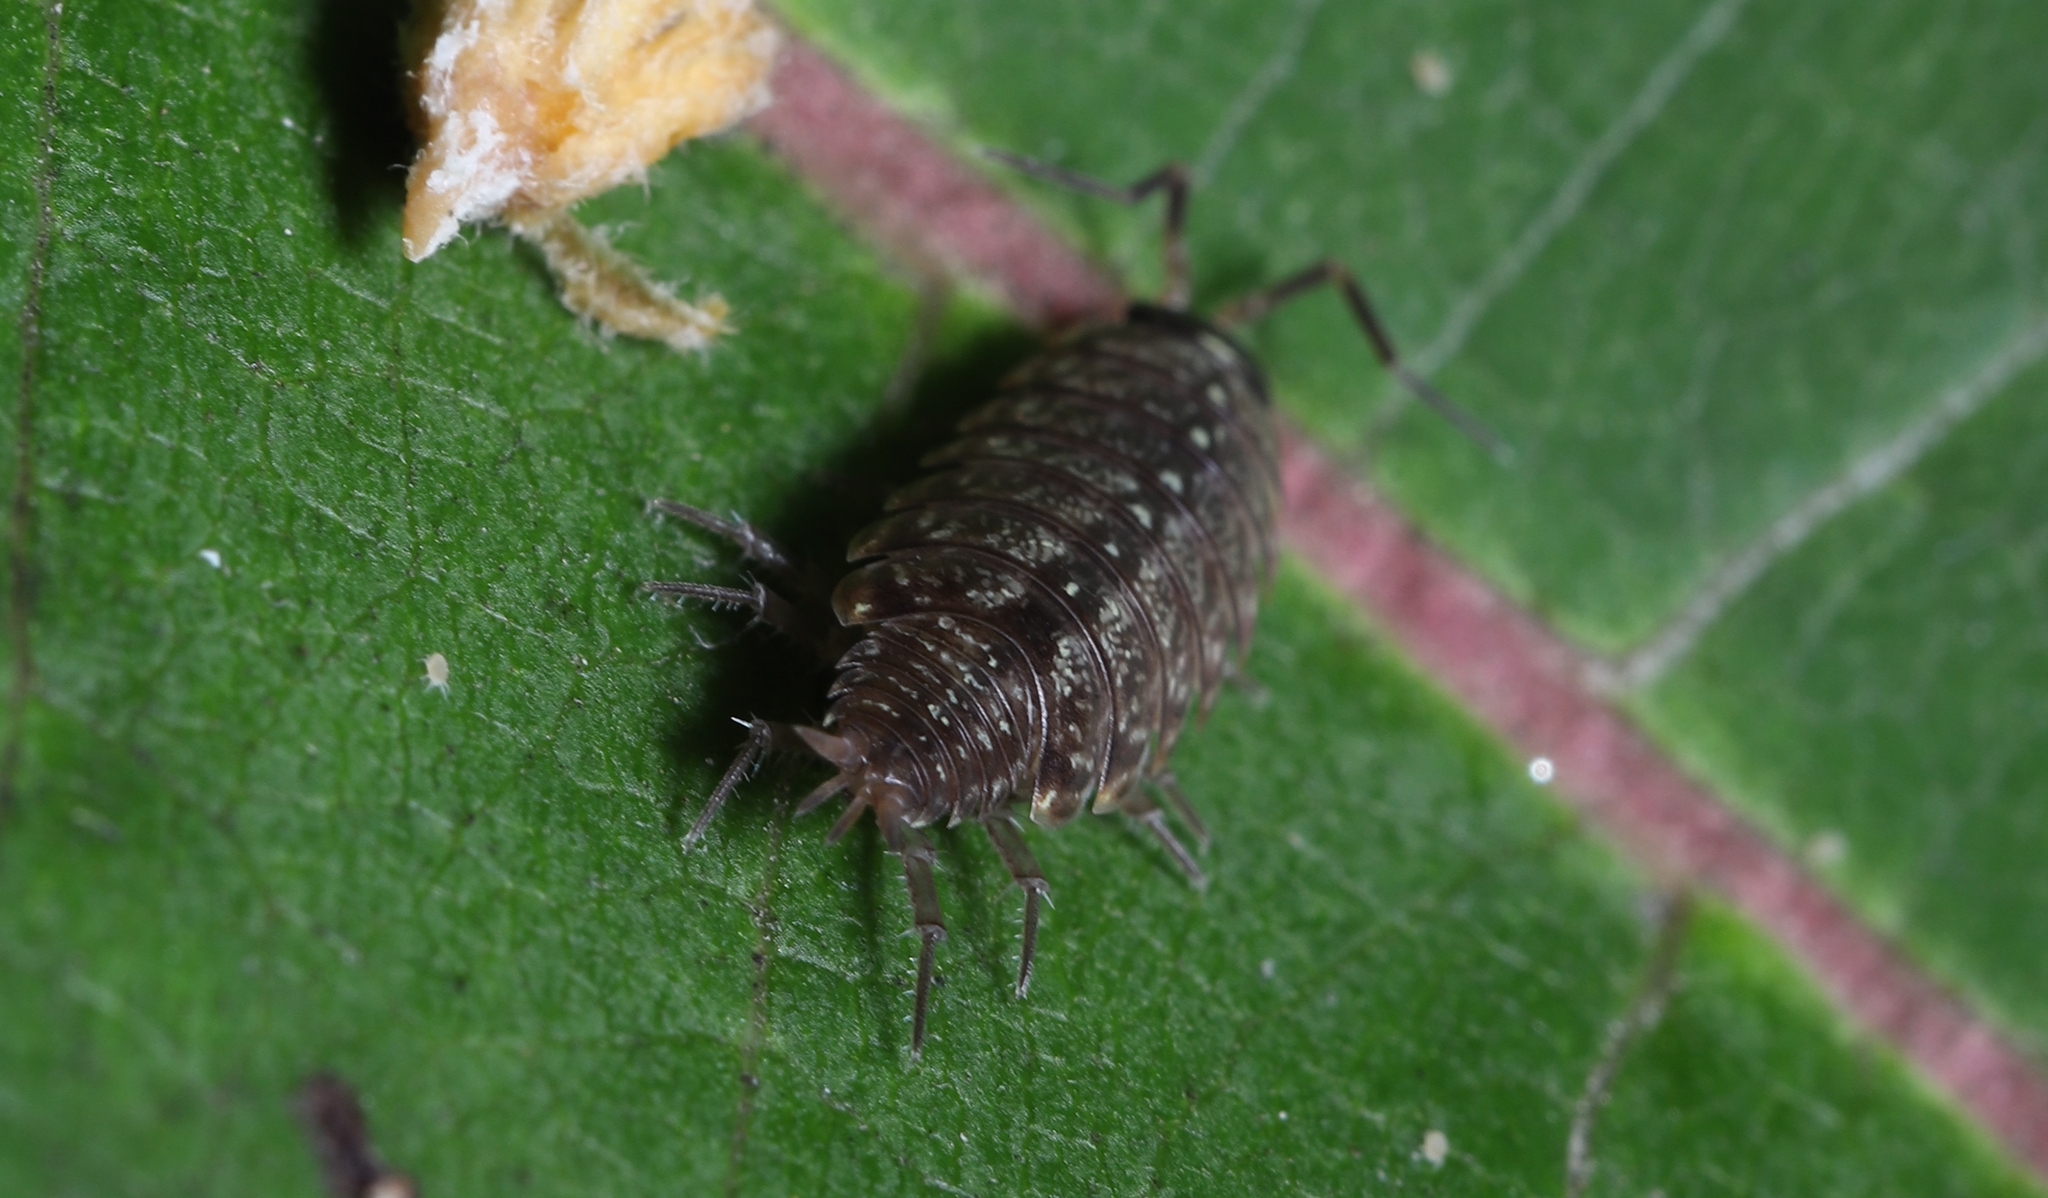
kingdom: Animalia
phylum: Arthropoda
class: Malacostraca
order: Isopoda
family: Philosciidae
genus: Philoscia
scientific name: Philoscia muscorum
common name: Common striped woodlouse
